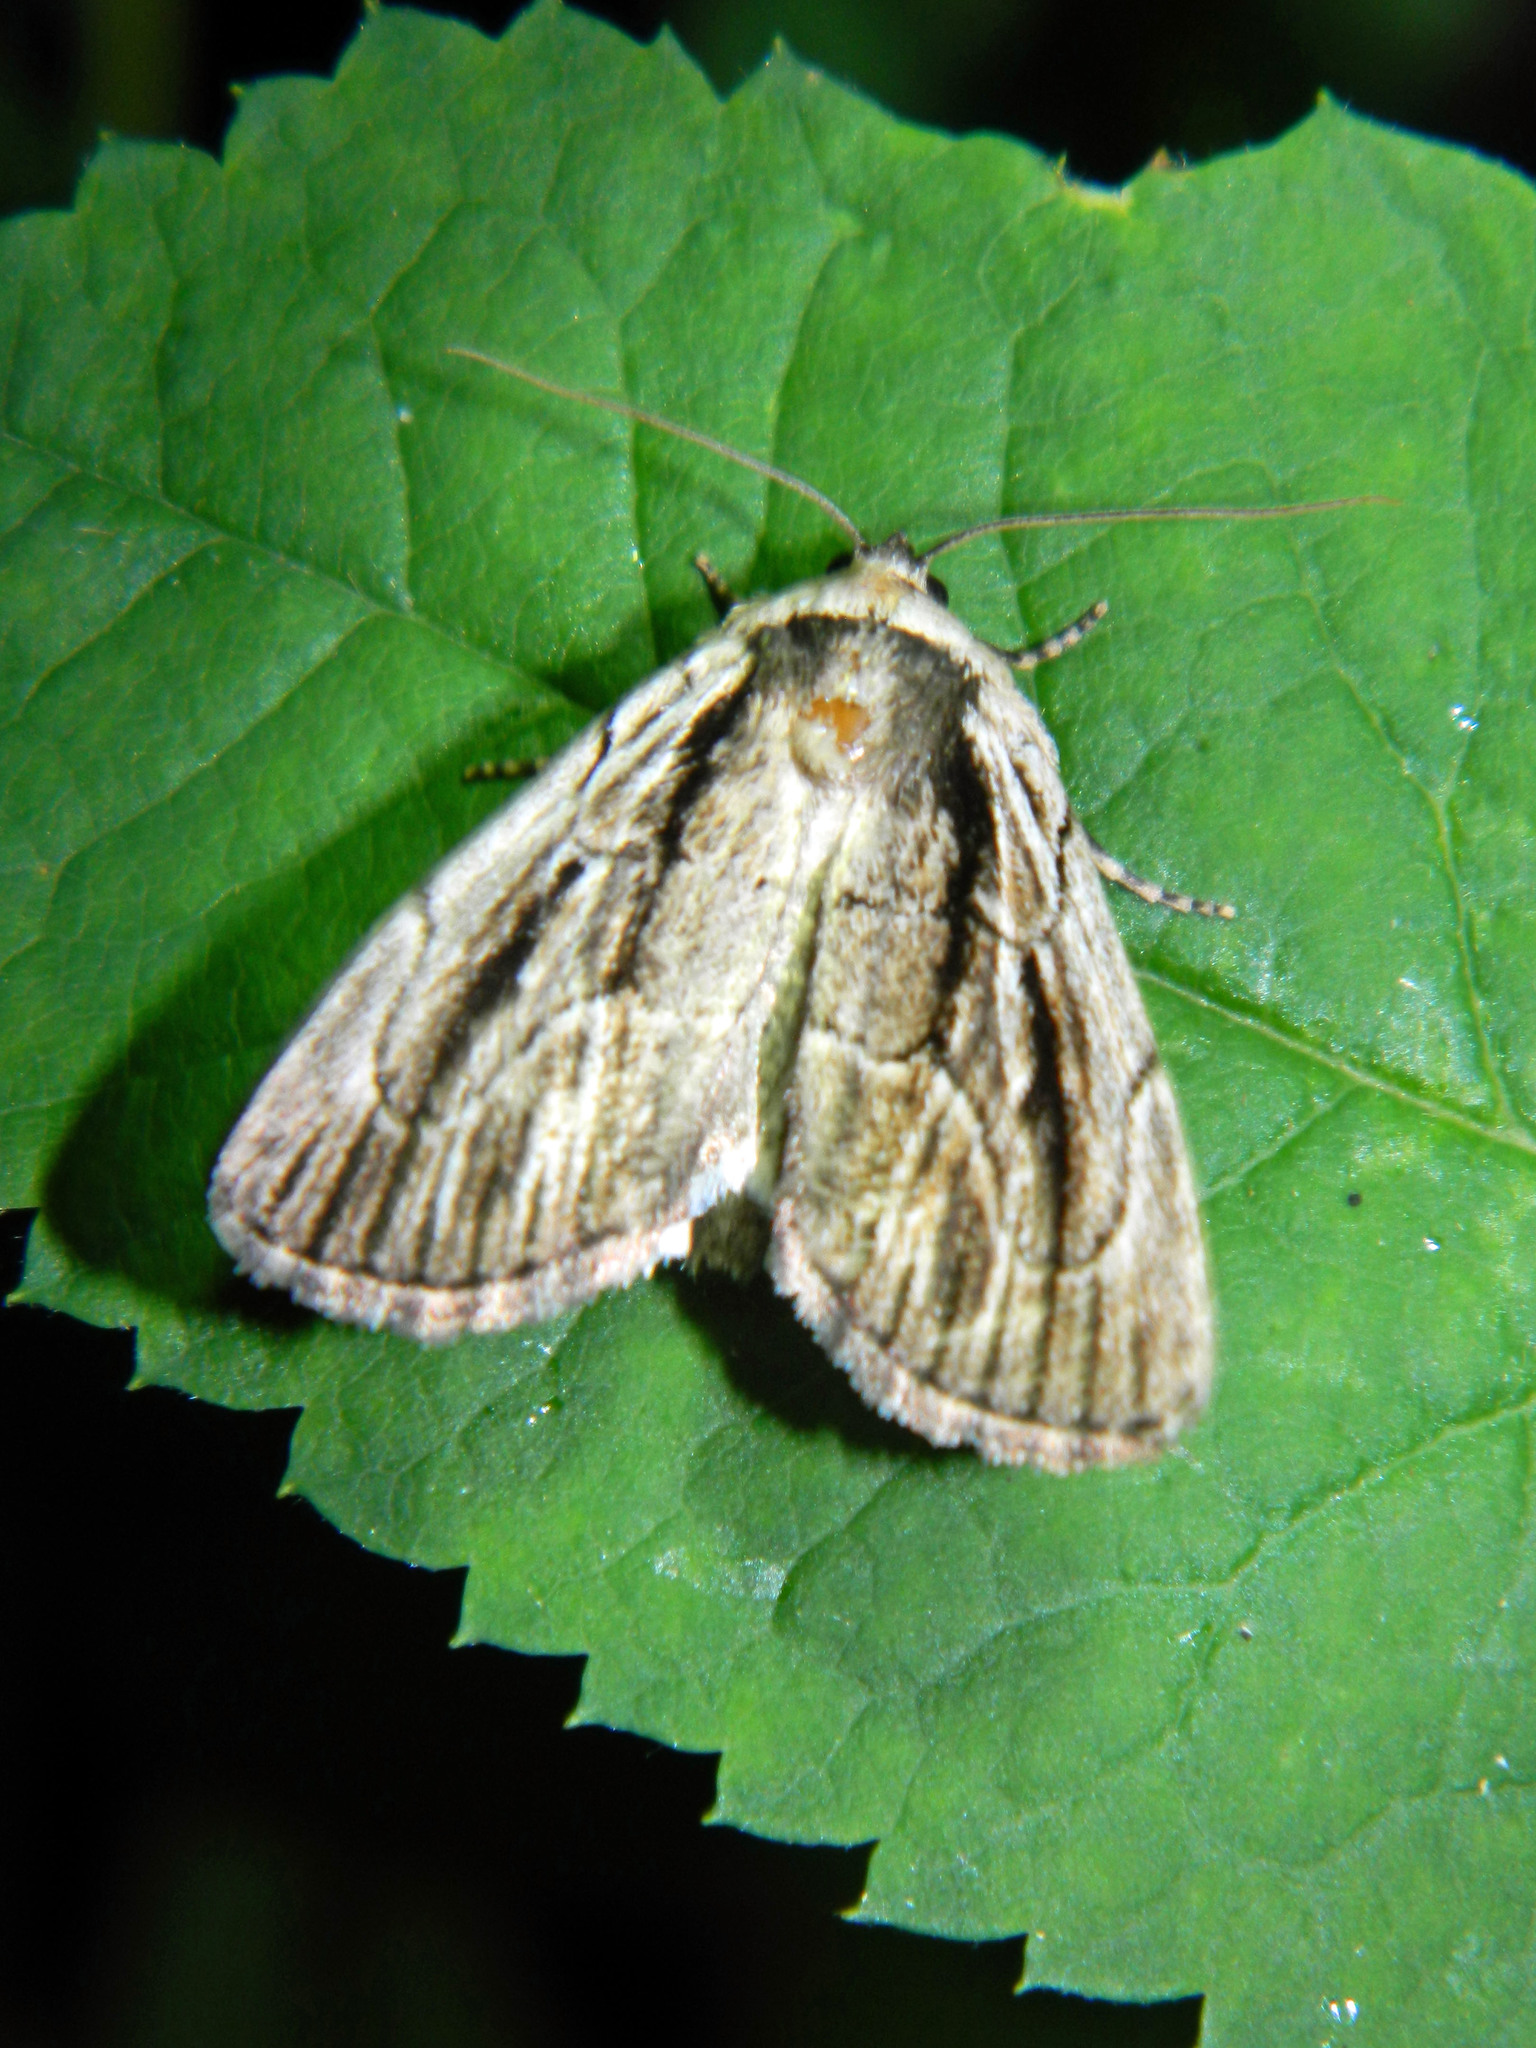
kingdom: Animalia
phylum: Arthropoda
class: Insecta
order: Lepidoptera
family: Noctuidae
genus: Sympistis
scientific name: Sympistis badistriga
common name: Brown-lined sallow moth
